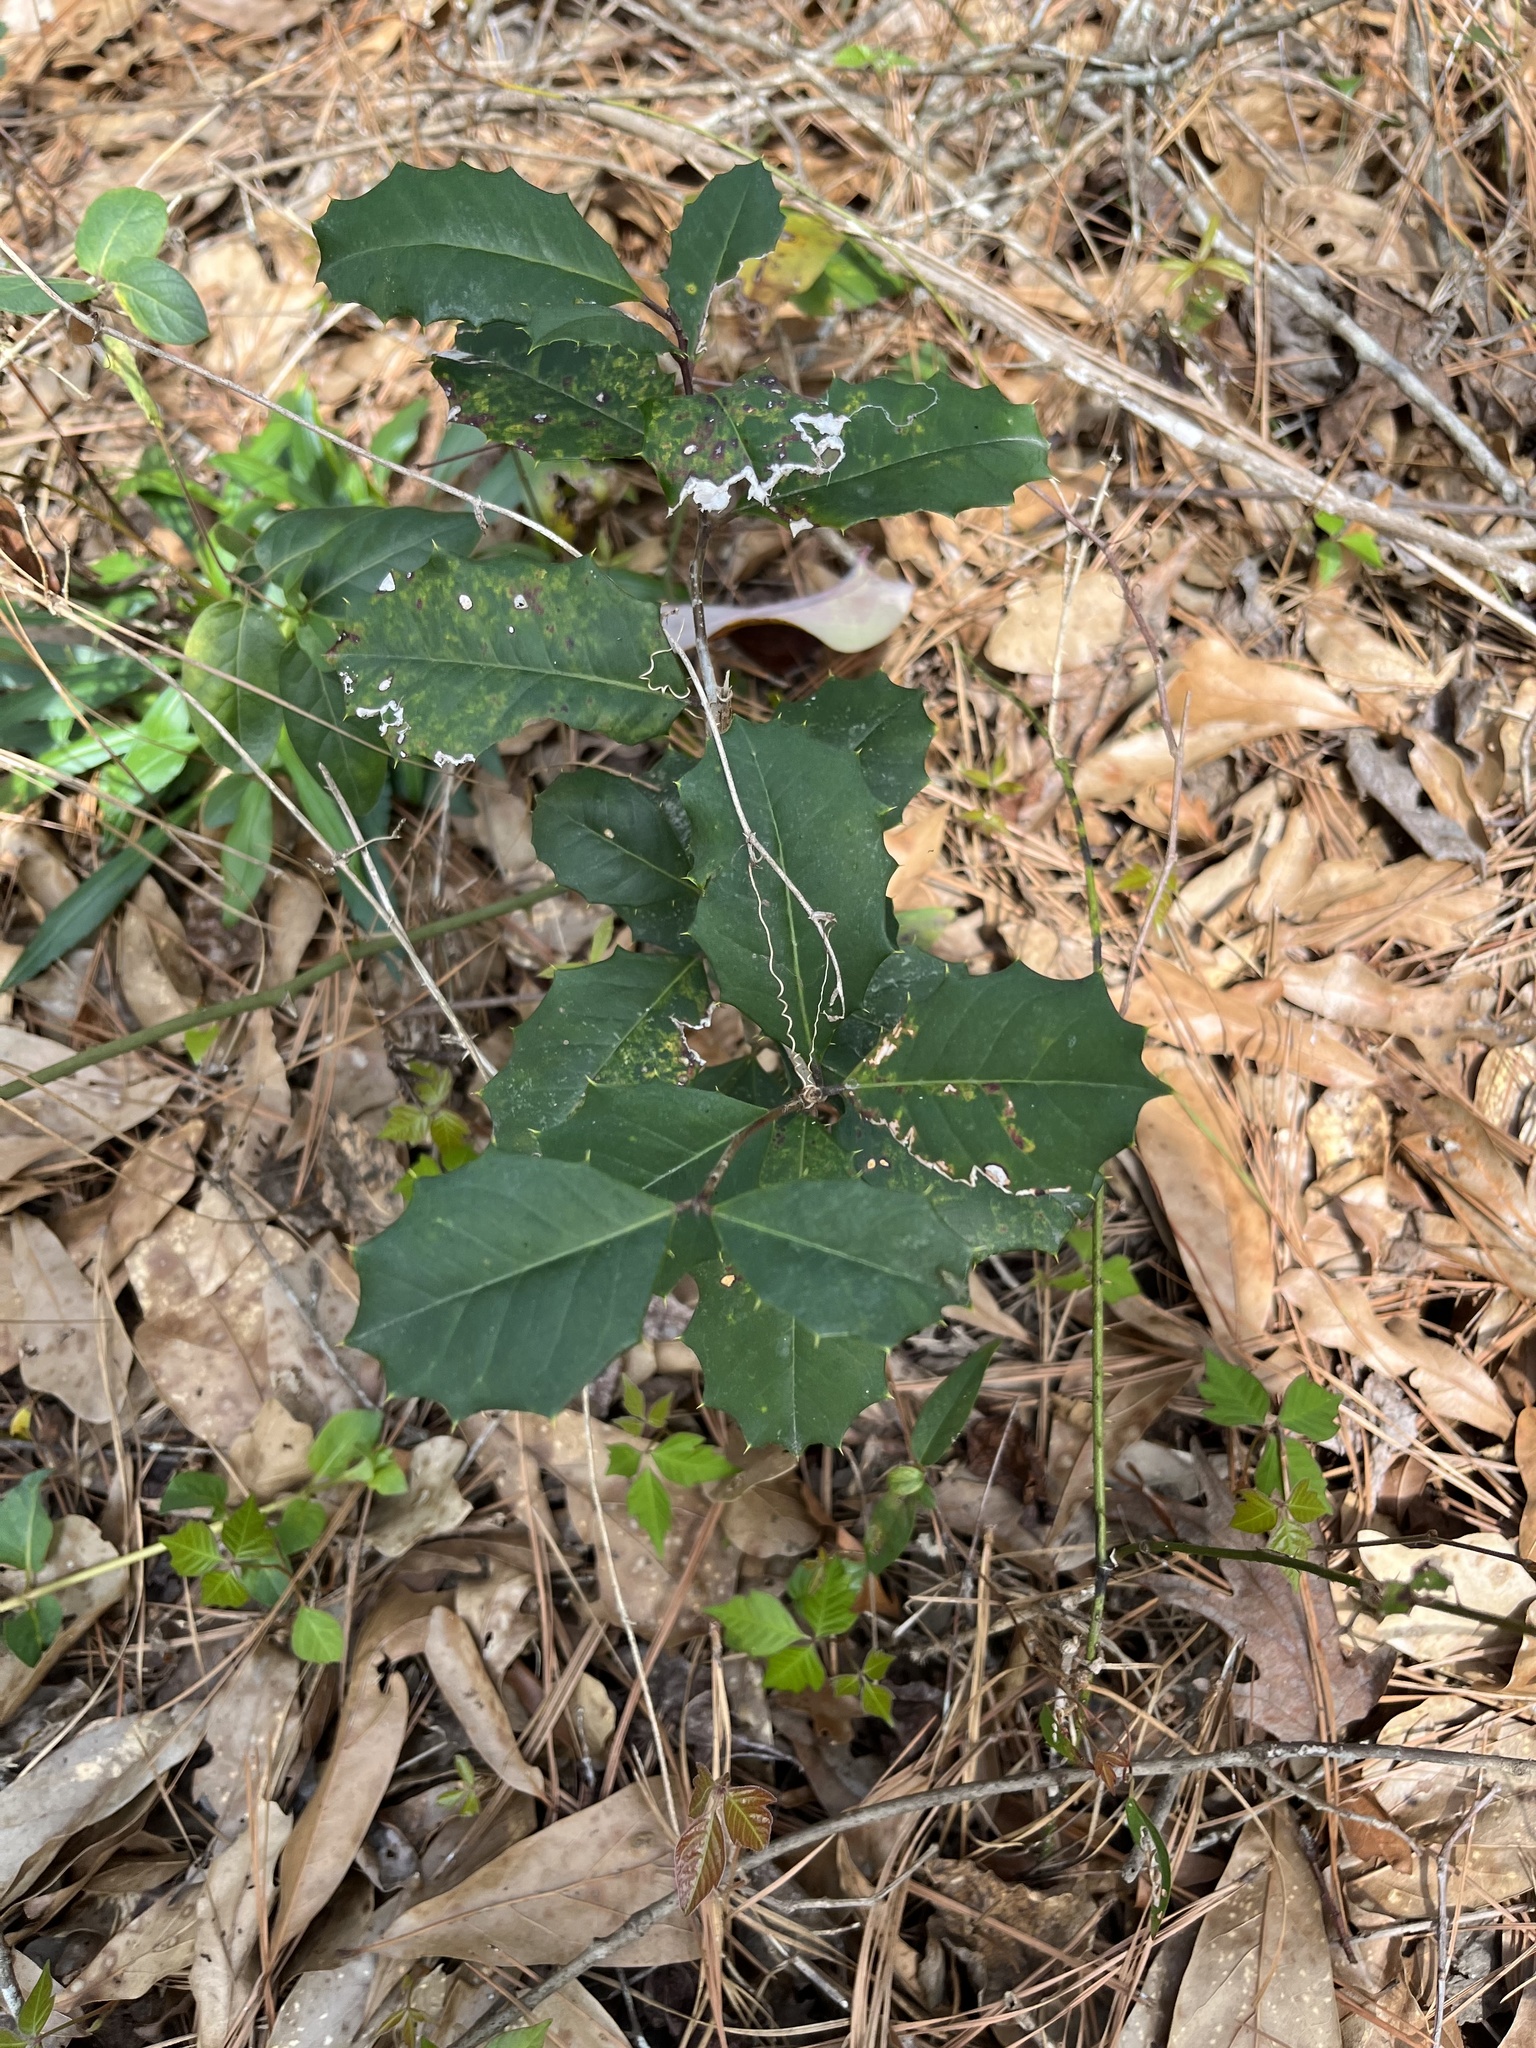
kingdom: Plantae
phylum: Tracheophyta
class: Magnoliopsida
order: Aquifoliales
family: Aquifoliaceae
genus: Ilex
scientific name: Ilex opaca
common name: American holly
